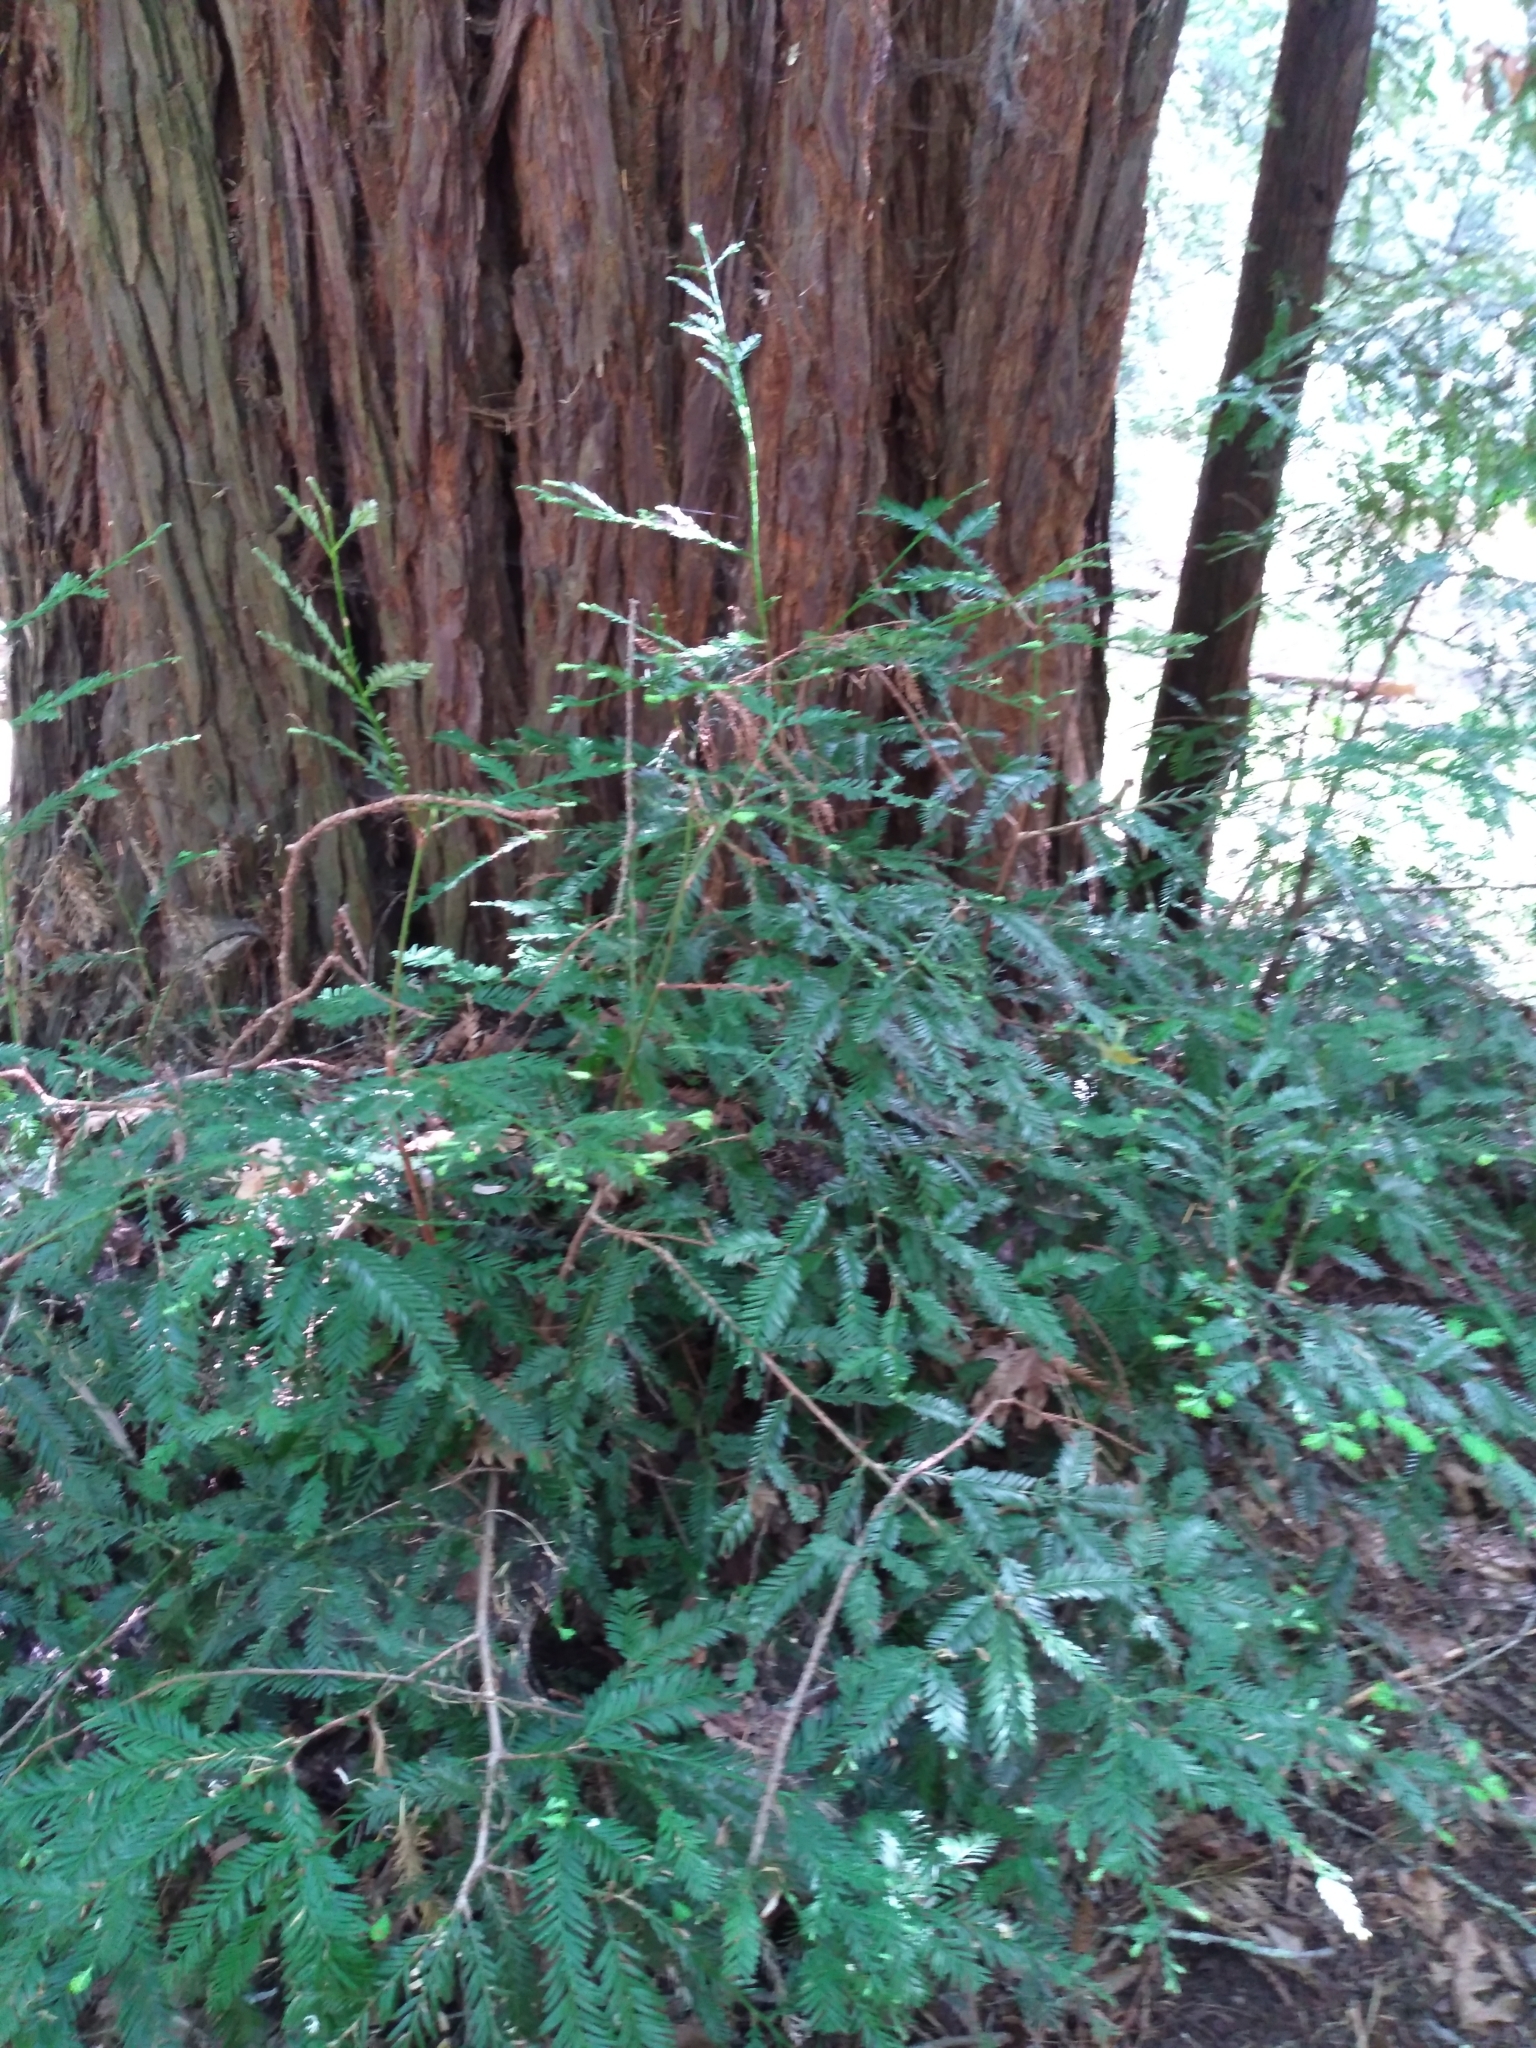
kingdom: Plantae
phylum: Tracheophyta
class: Pinopsida
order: Pinales
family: Cupressaceae
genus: Sequoia
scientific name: Sequoia sempervirens
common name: Coast redwood
